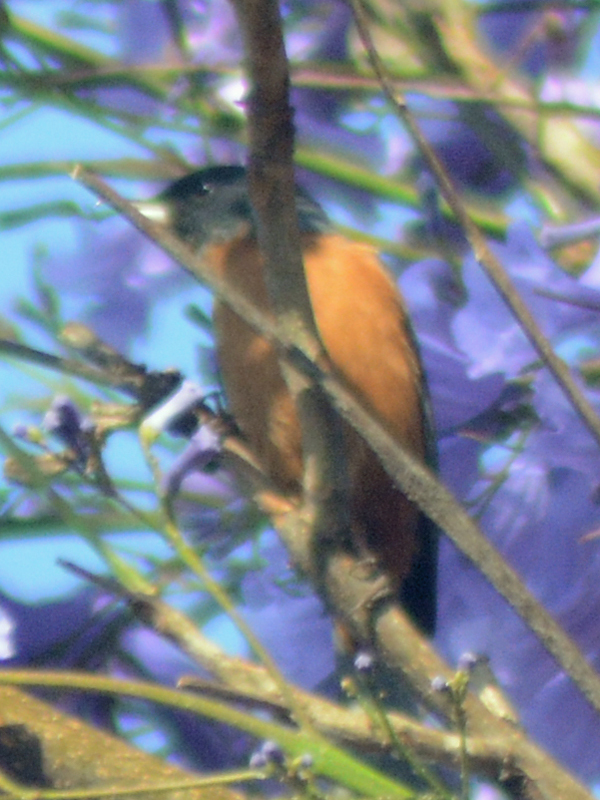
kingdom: Animalia
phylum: Chordata
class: Aves
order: Passeriformes
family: Thraupidae
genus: Diglossa
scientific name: Diglossa baritula
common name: Cinnamon-bellied flowerpiercer
